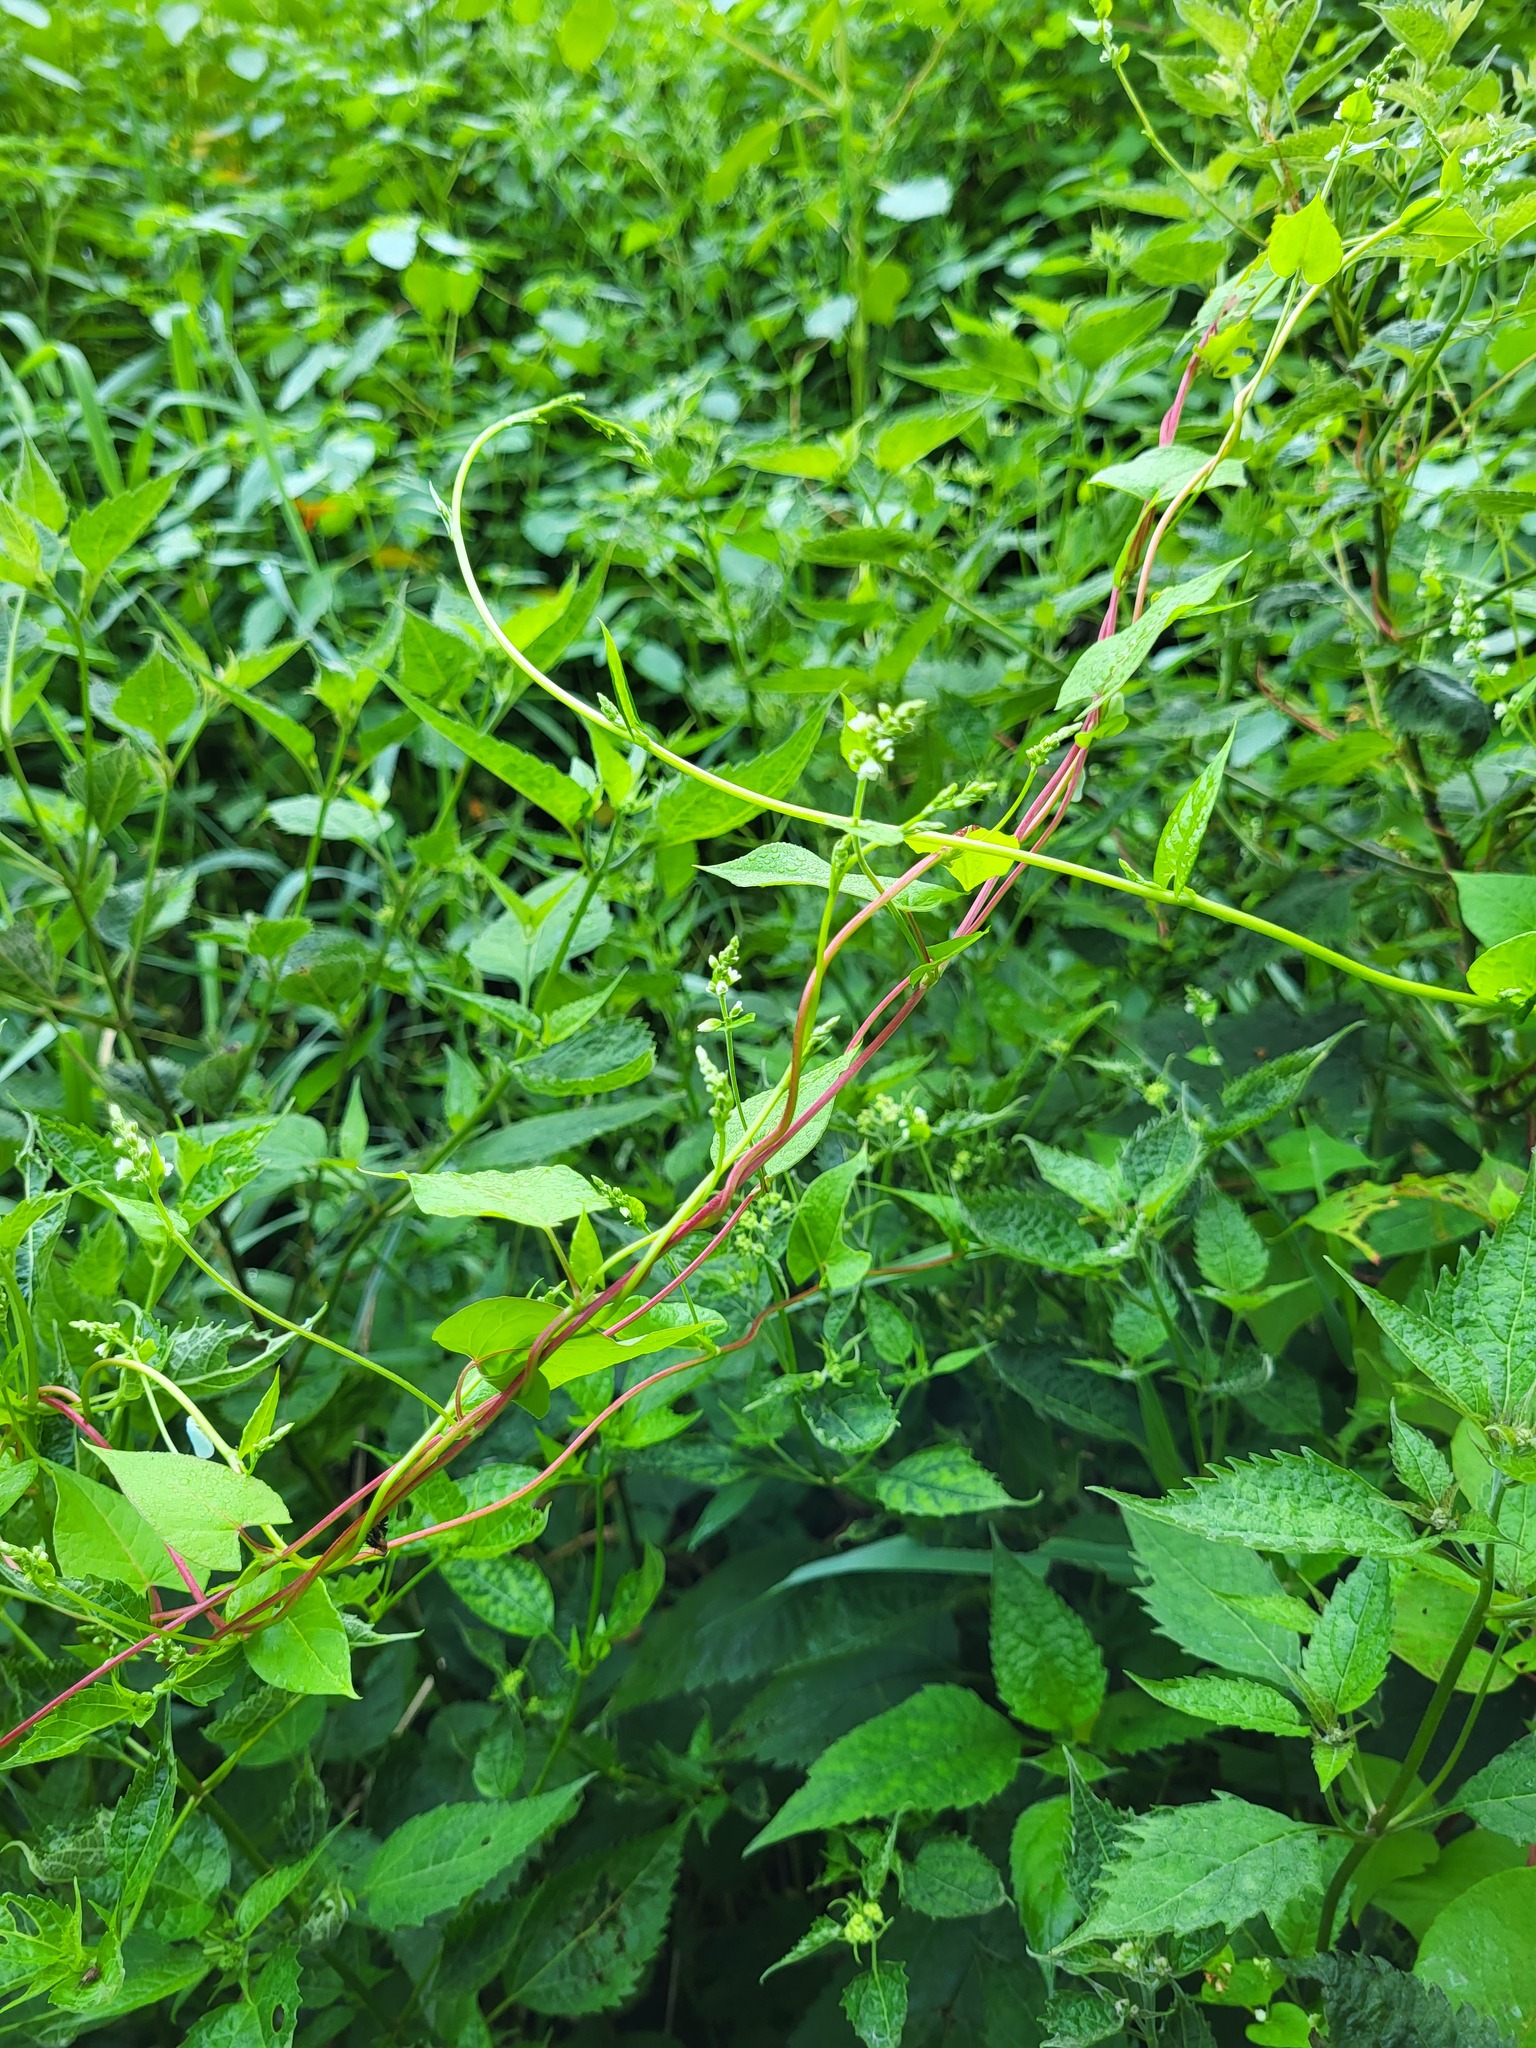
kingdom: Plantae
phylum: Tracheophyta
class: Magnoliopsida
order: Caryophyllales
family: Polygonaceae
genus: Fallopia
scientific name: Fallopia scandens
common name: Climbing false buckwheat
